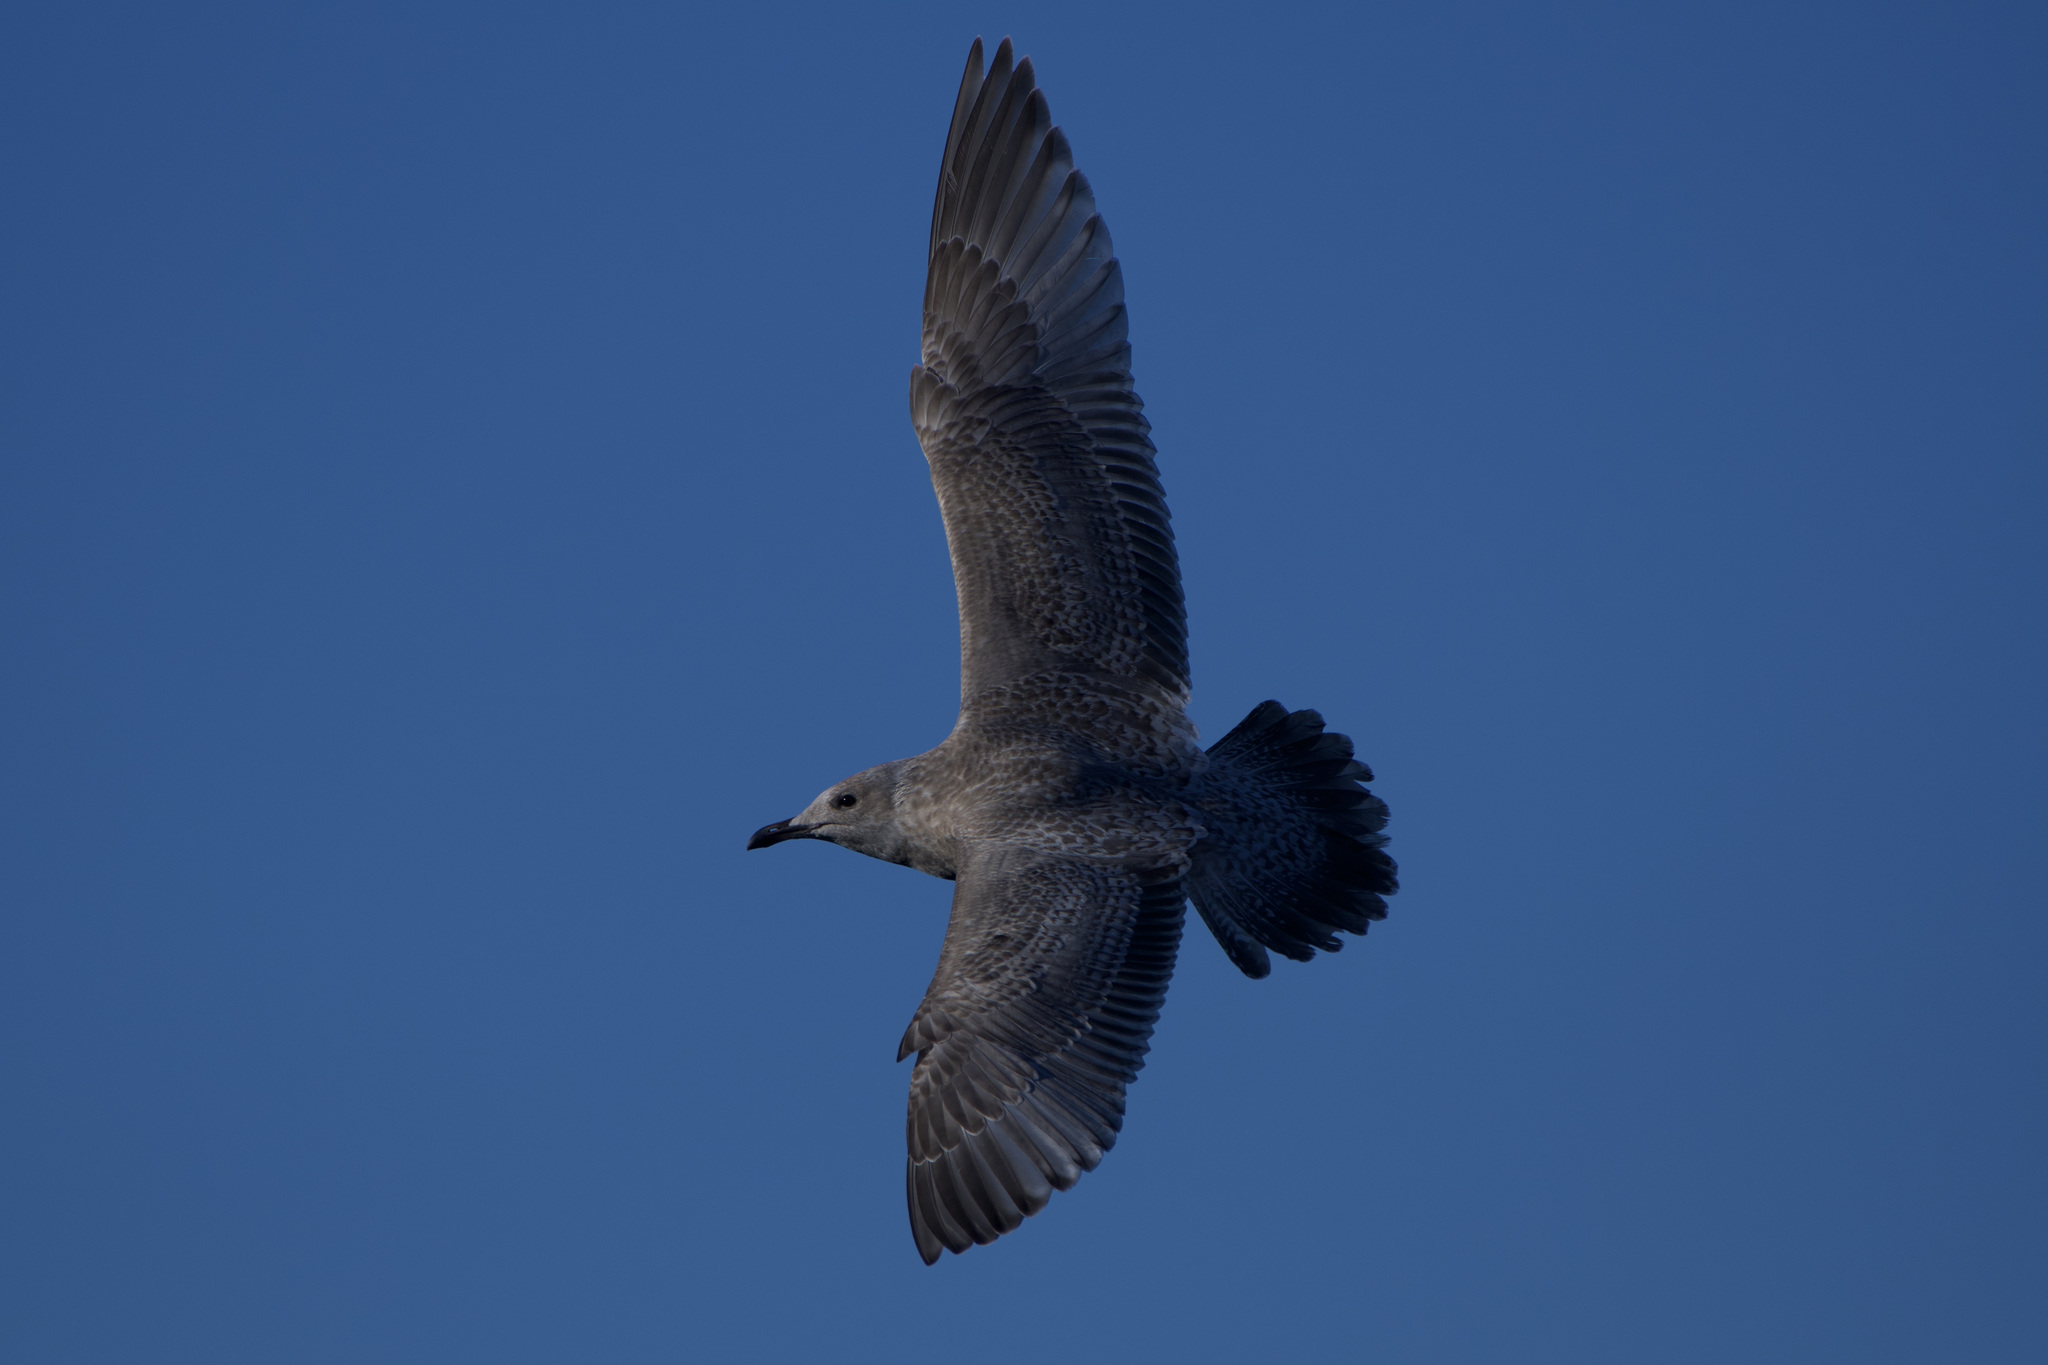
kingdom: Animalia
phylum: Chordata
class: Aves
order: Charadriiformes
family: Laridae
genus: Larus
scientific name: Larus argentatus
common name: Herring gull
